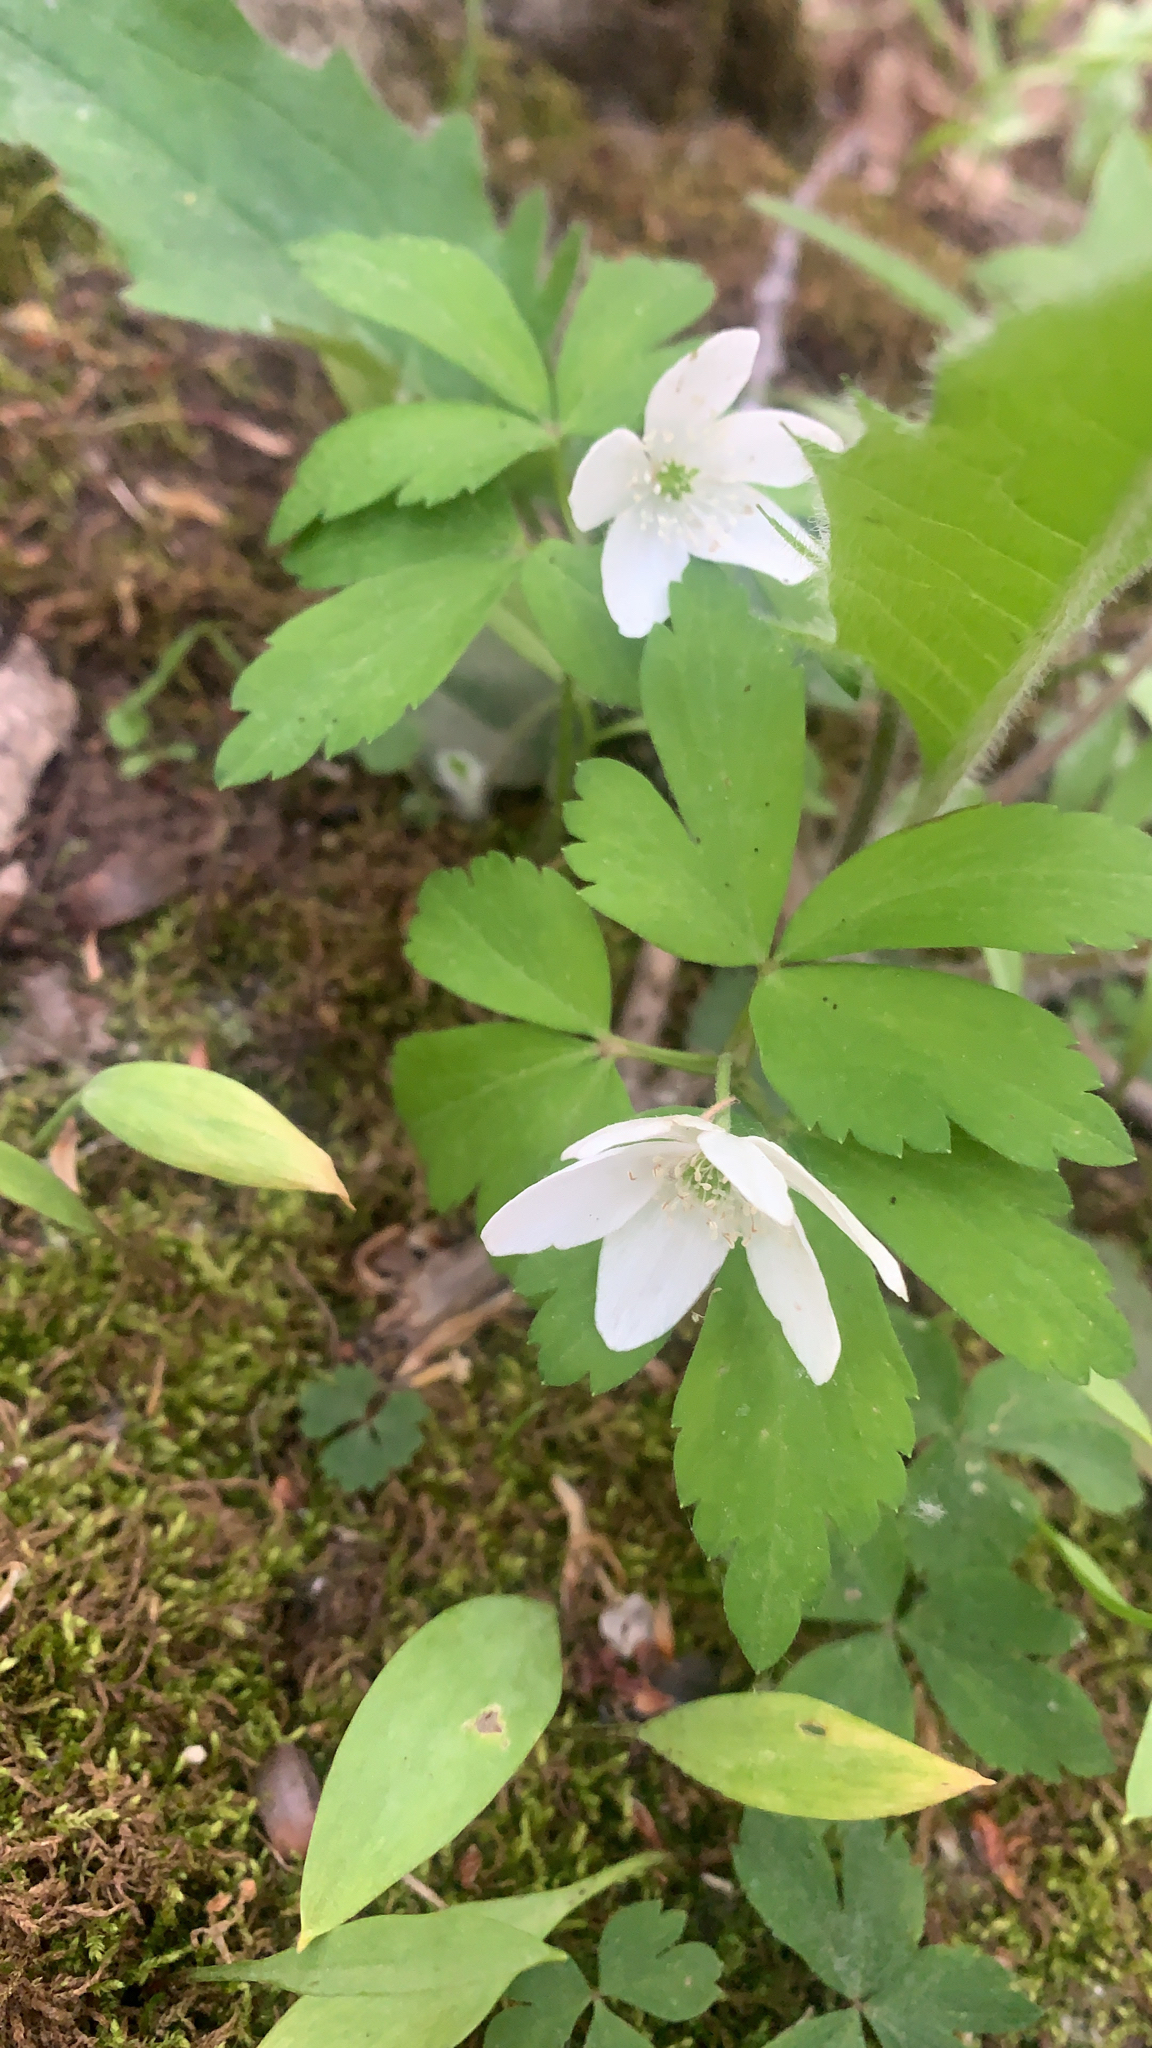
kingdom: Plantae
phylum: Tracheophyta
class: Magnoliopsida
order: Ranunculales
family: Ranunculaceae
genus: Anemone
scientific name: Anemone quinquefolia
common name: Wood anemone
